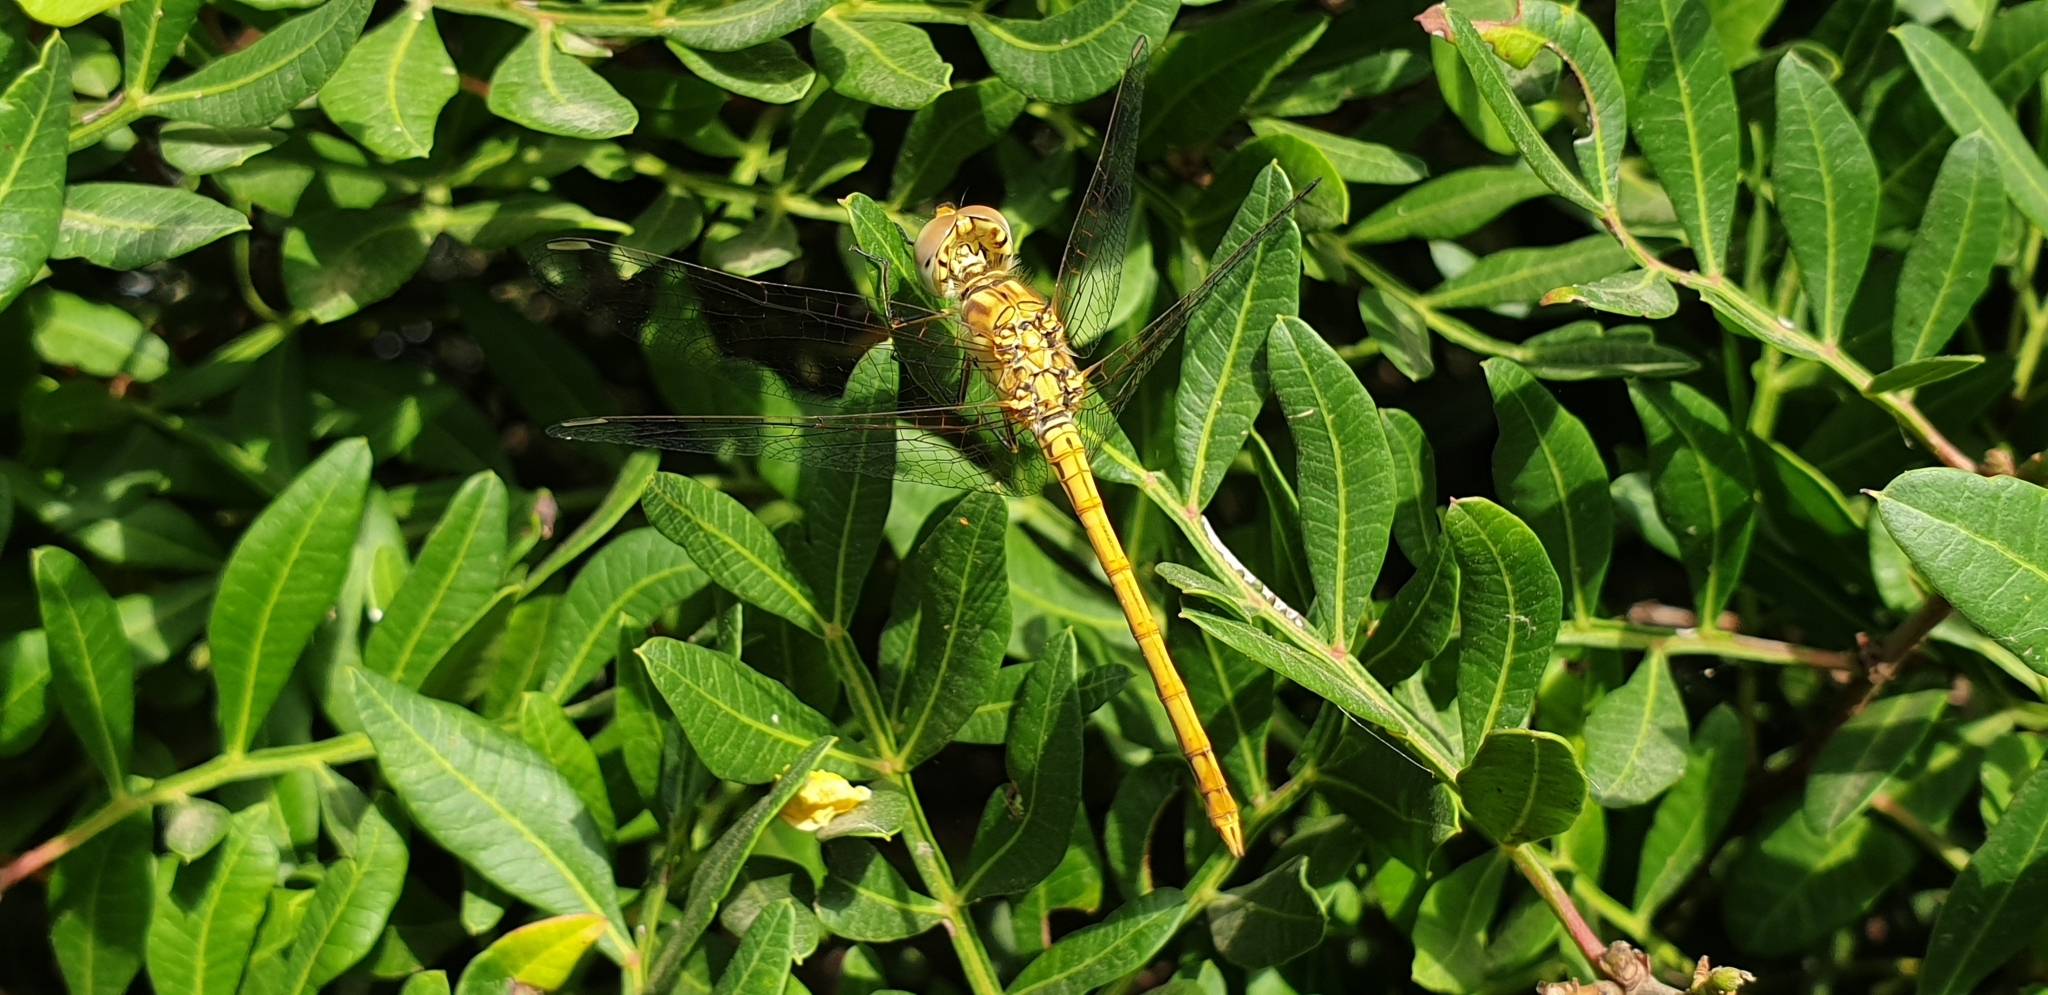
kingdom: Animalia
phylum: Arthropoda
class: Insecta
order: Odonata
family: Libellulidae
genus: Sympetrum
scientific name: Sympetrum sinaiticum
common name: Desert darter
